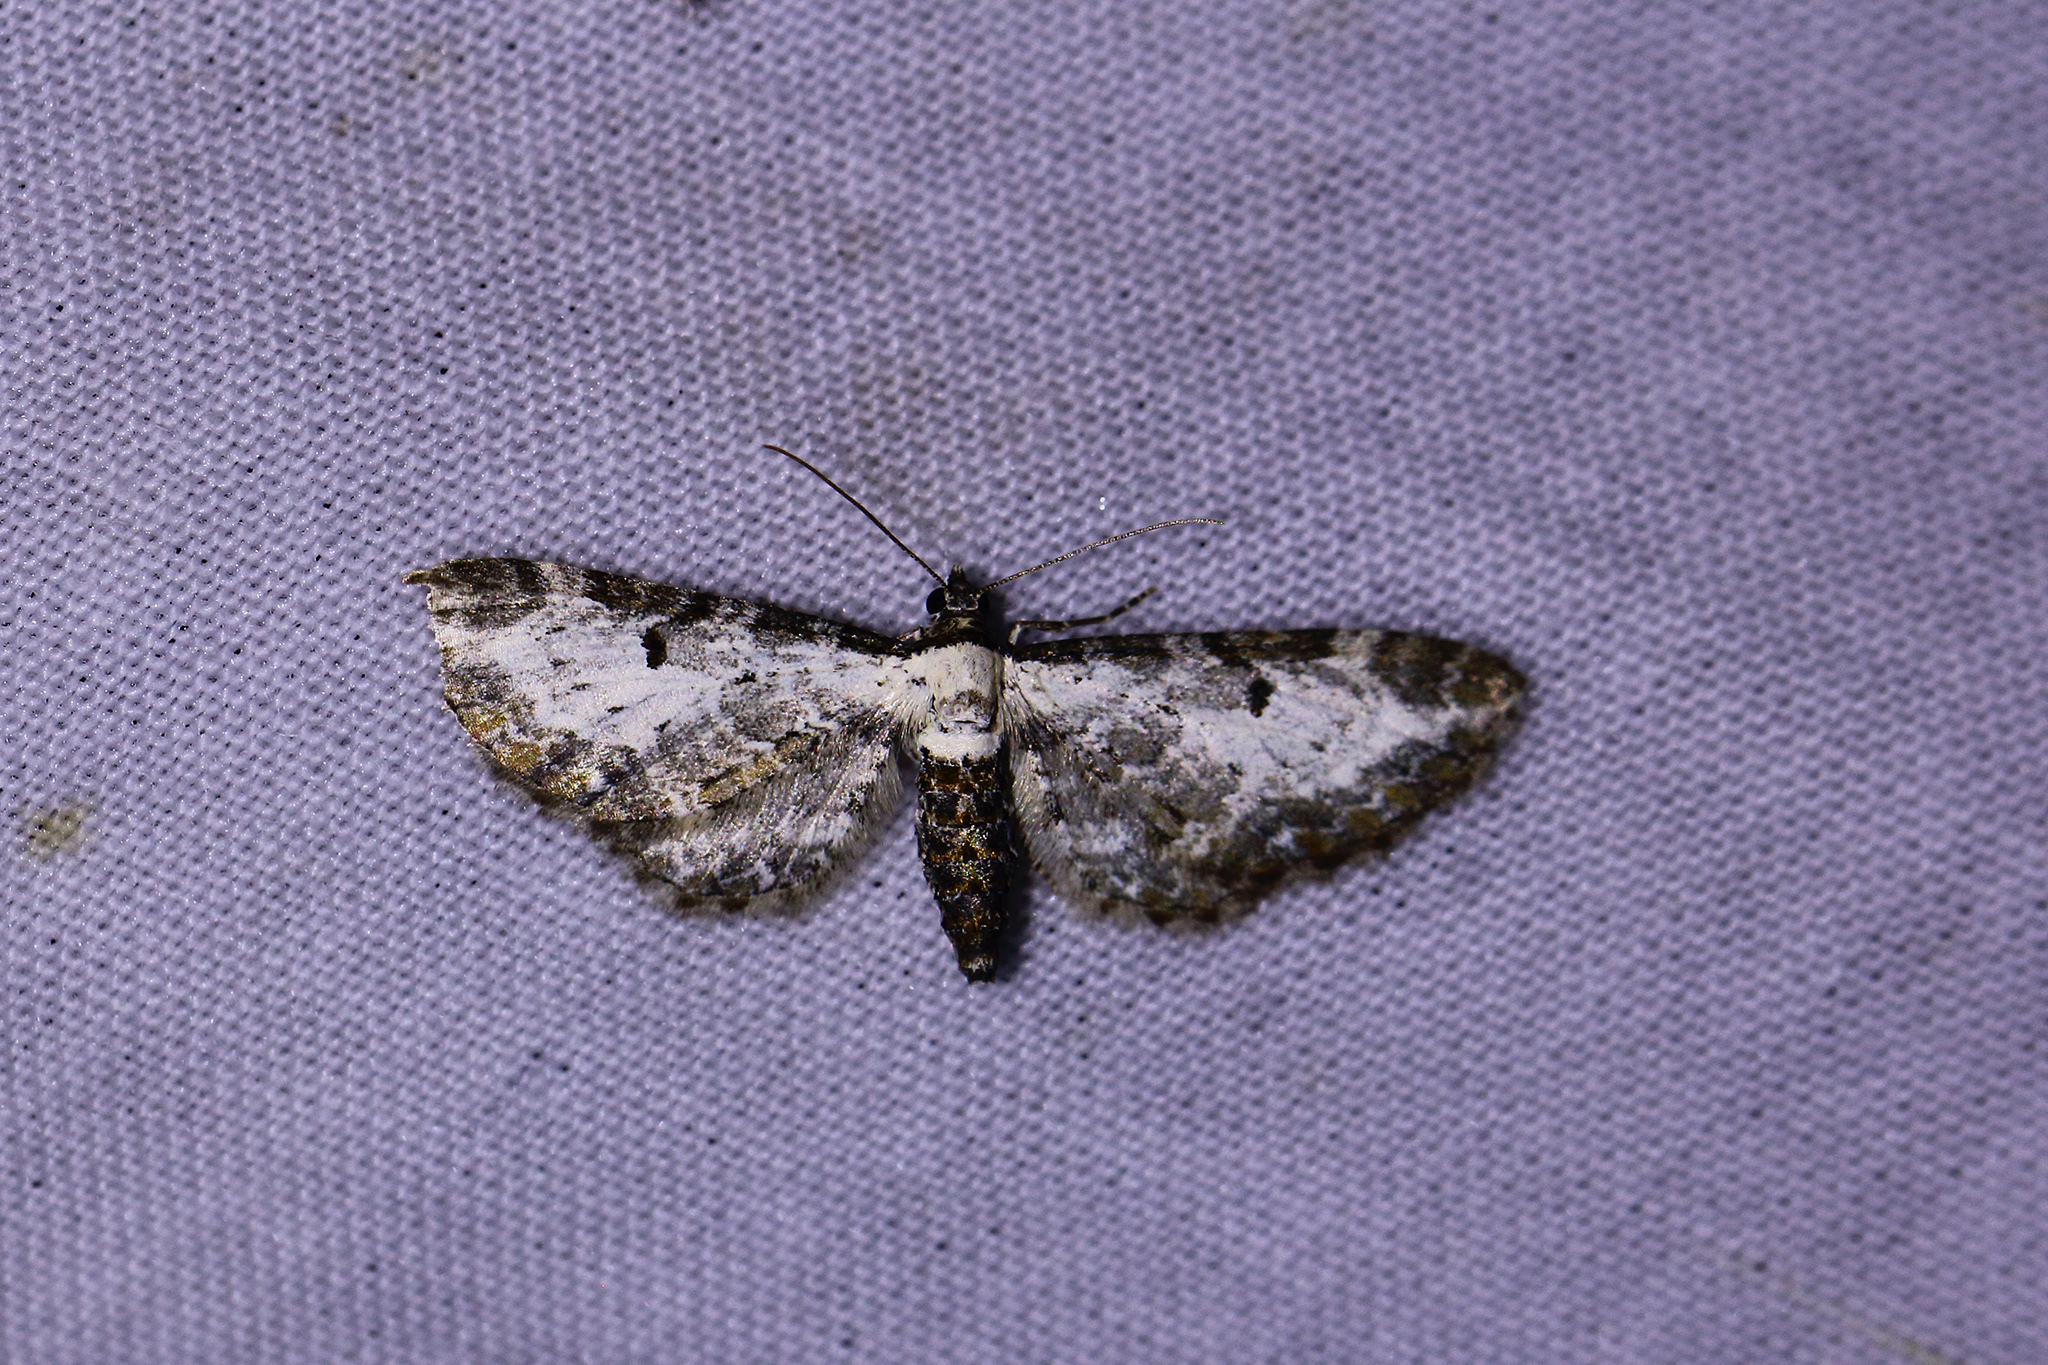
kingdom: Animalia
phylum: Arthropoda
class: Insecta
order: Lepidoptera
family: Geometridae
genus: Eupithecia
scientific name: Eupithecia succenturiata
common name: Bordered pug
